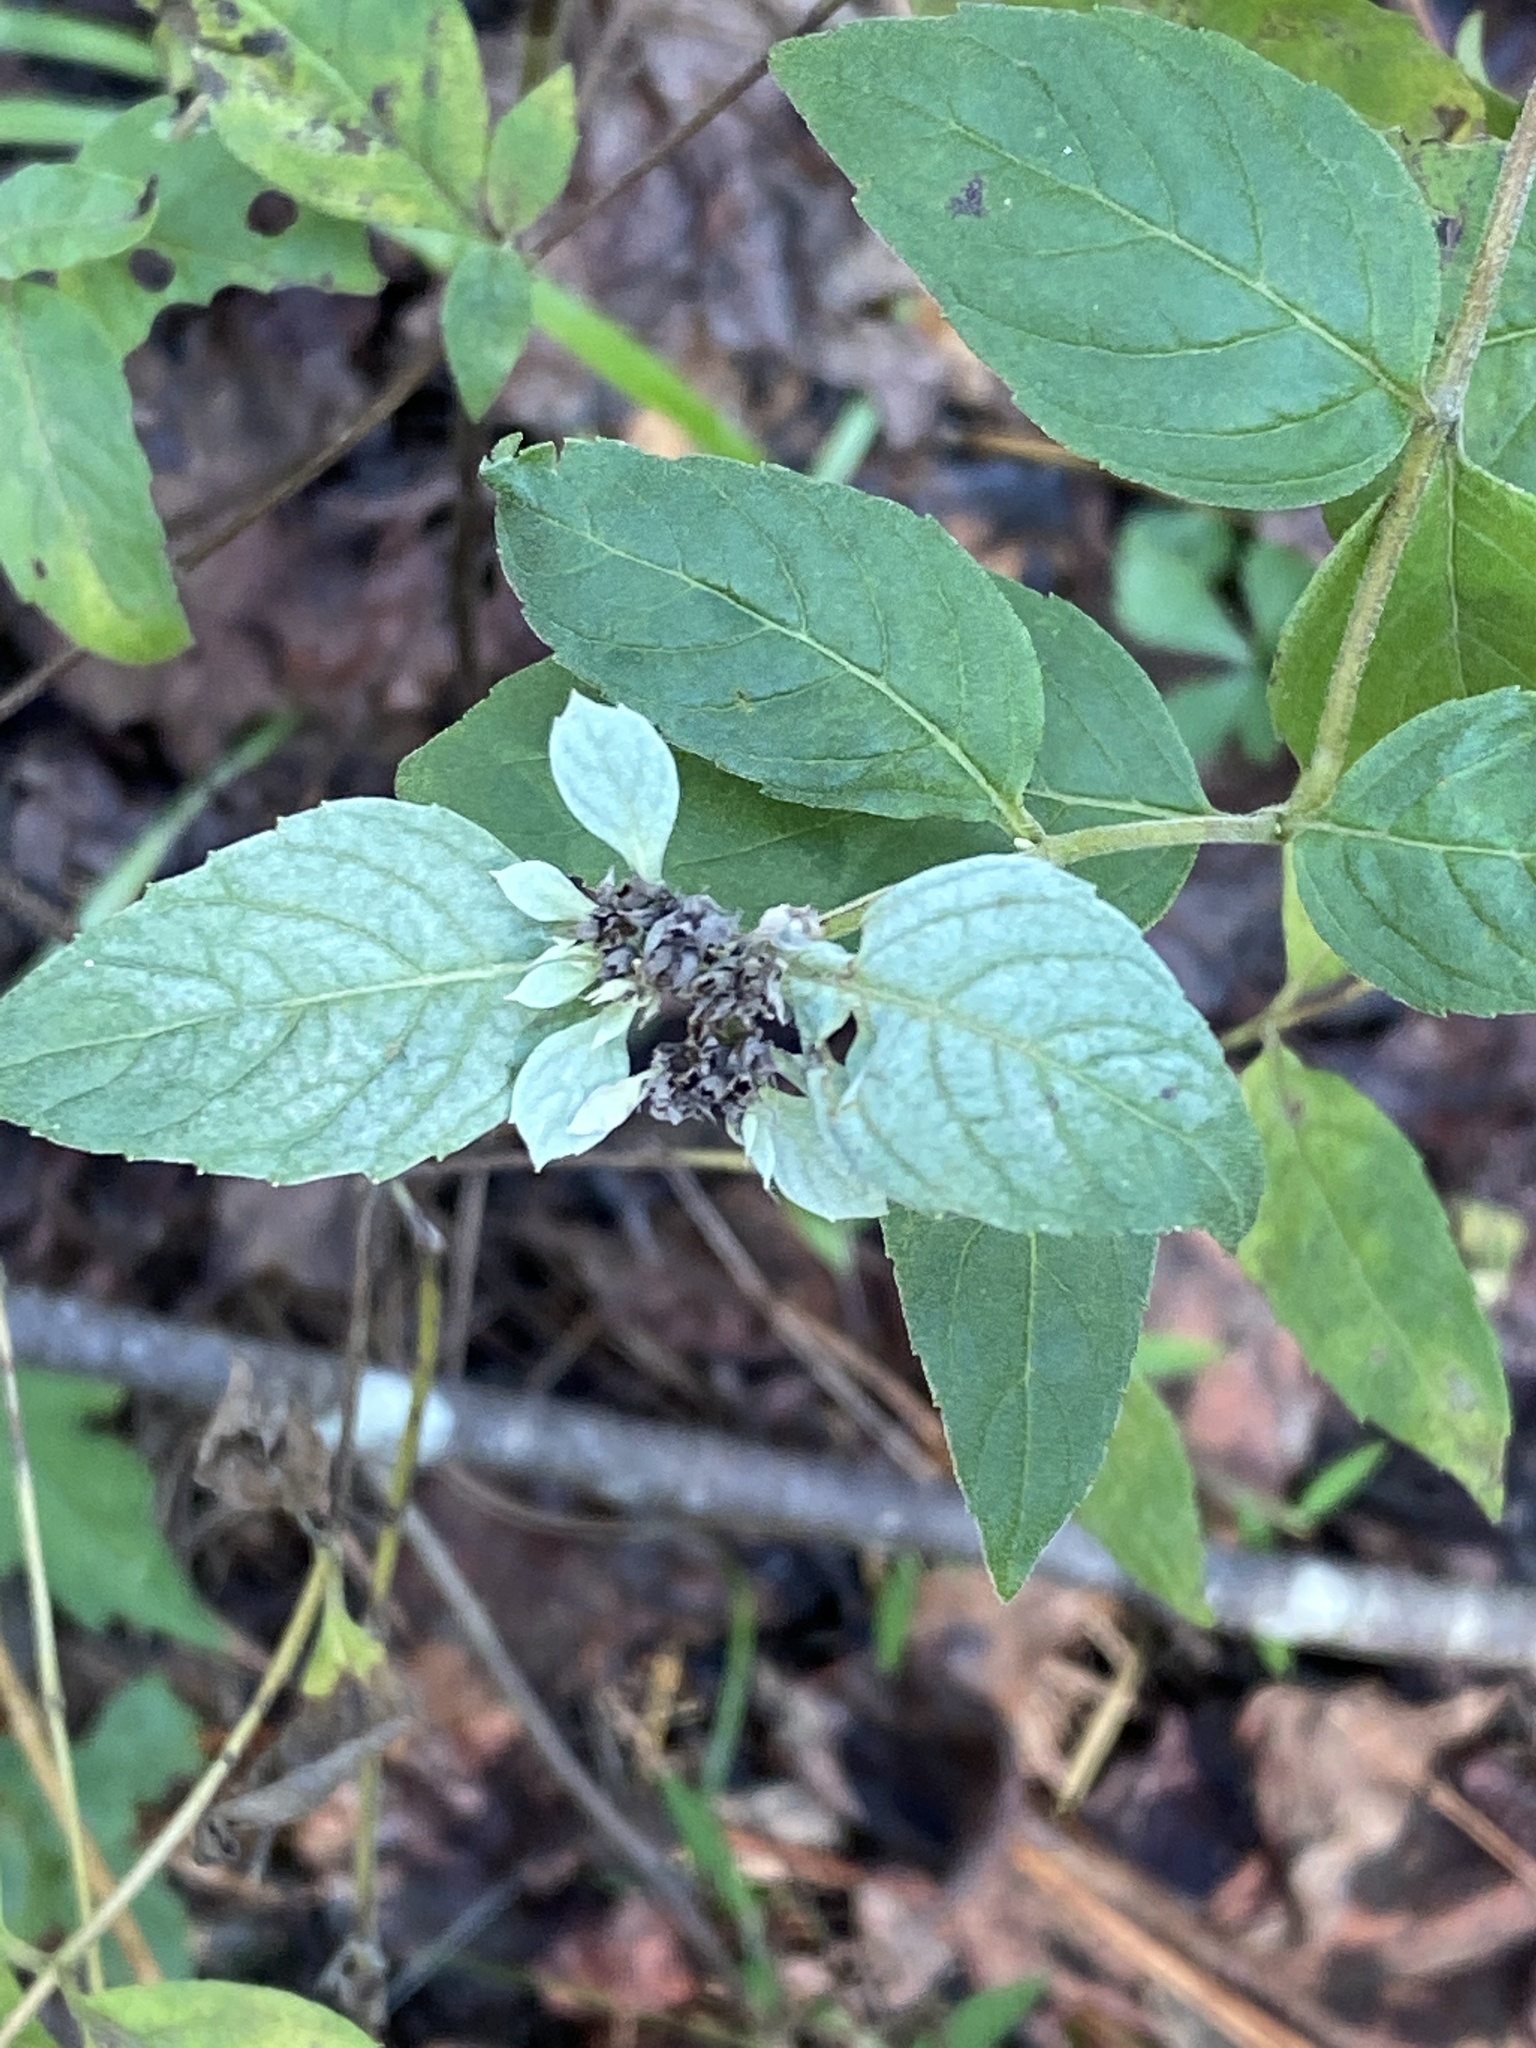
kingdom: Plantae
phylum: Tracheophyta
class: Magnoliopsida
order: Lamiales
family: Lamiaceae
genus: Pycnanthemum
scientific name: Pycnanthemum incanum
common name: Hoary mountain-mint
